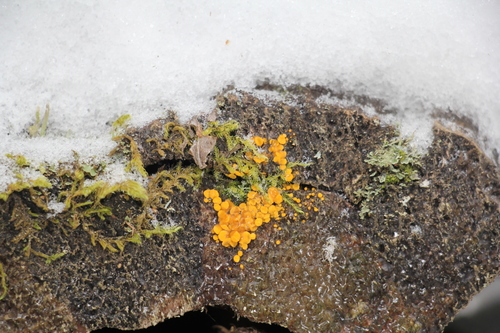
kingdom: Fungi
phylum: Ascomycota
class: Leotiomycetes
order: Helotiales
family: Pezizellaceae
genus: Calycina
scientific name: Calycina citrina
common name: Yellow fairy cups
